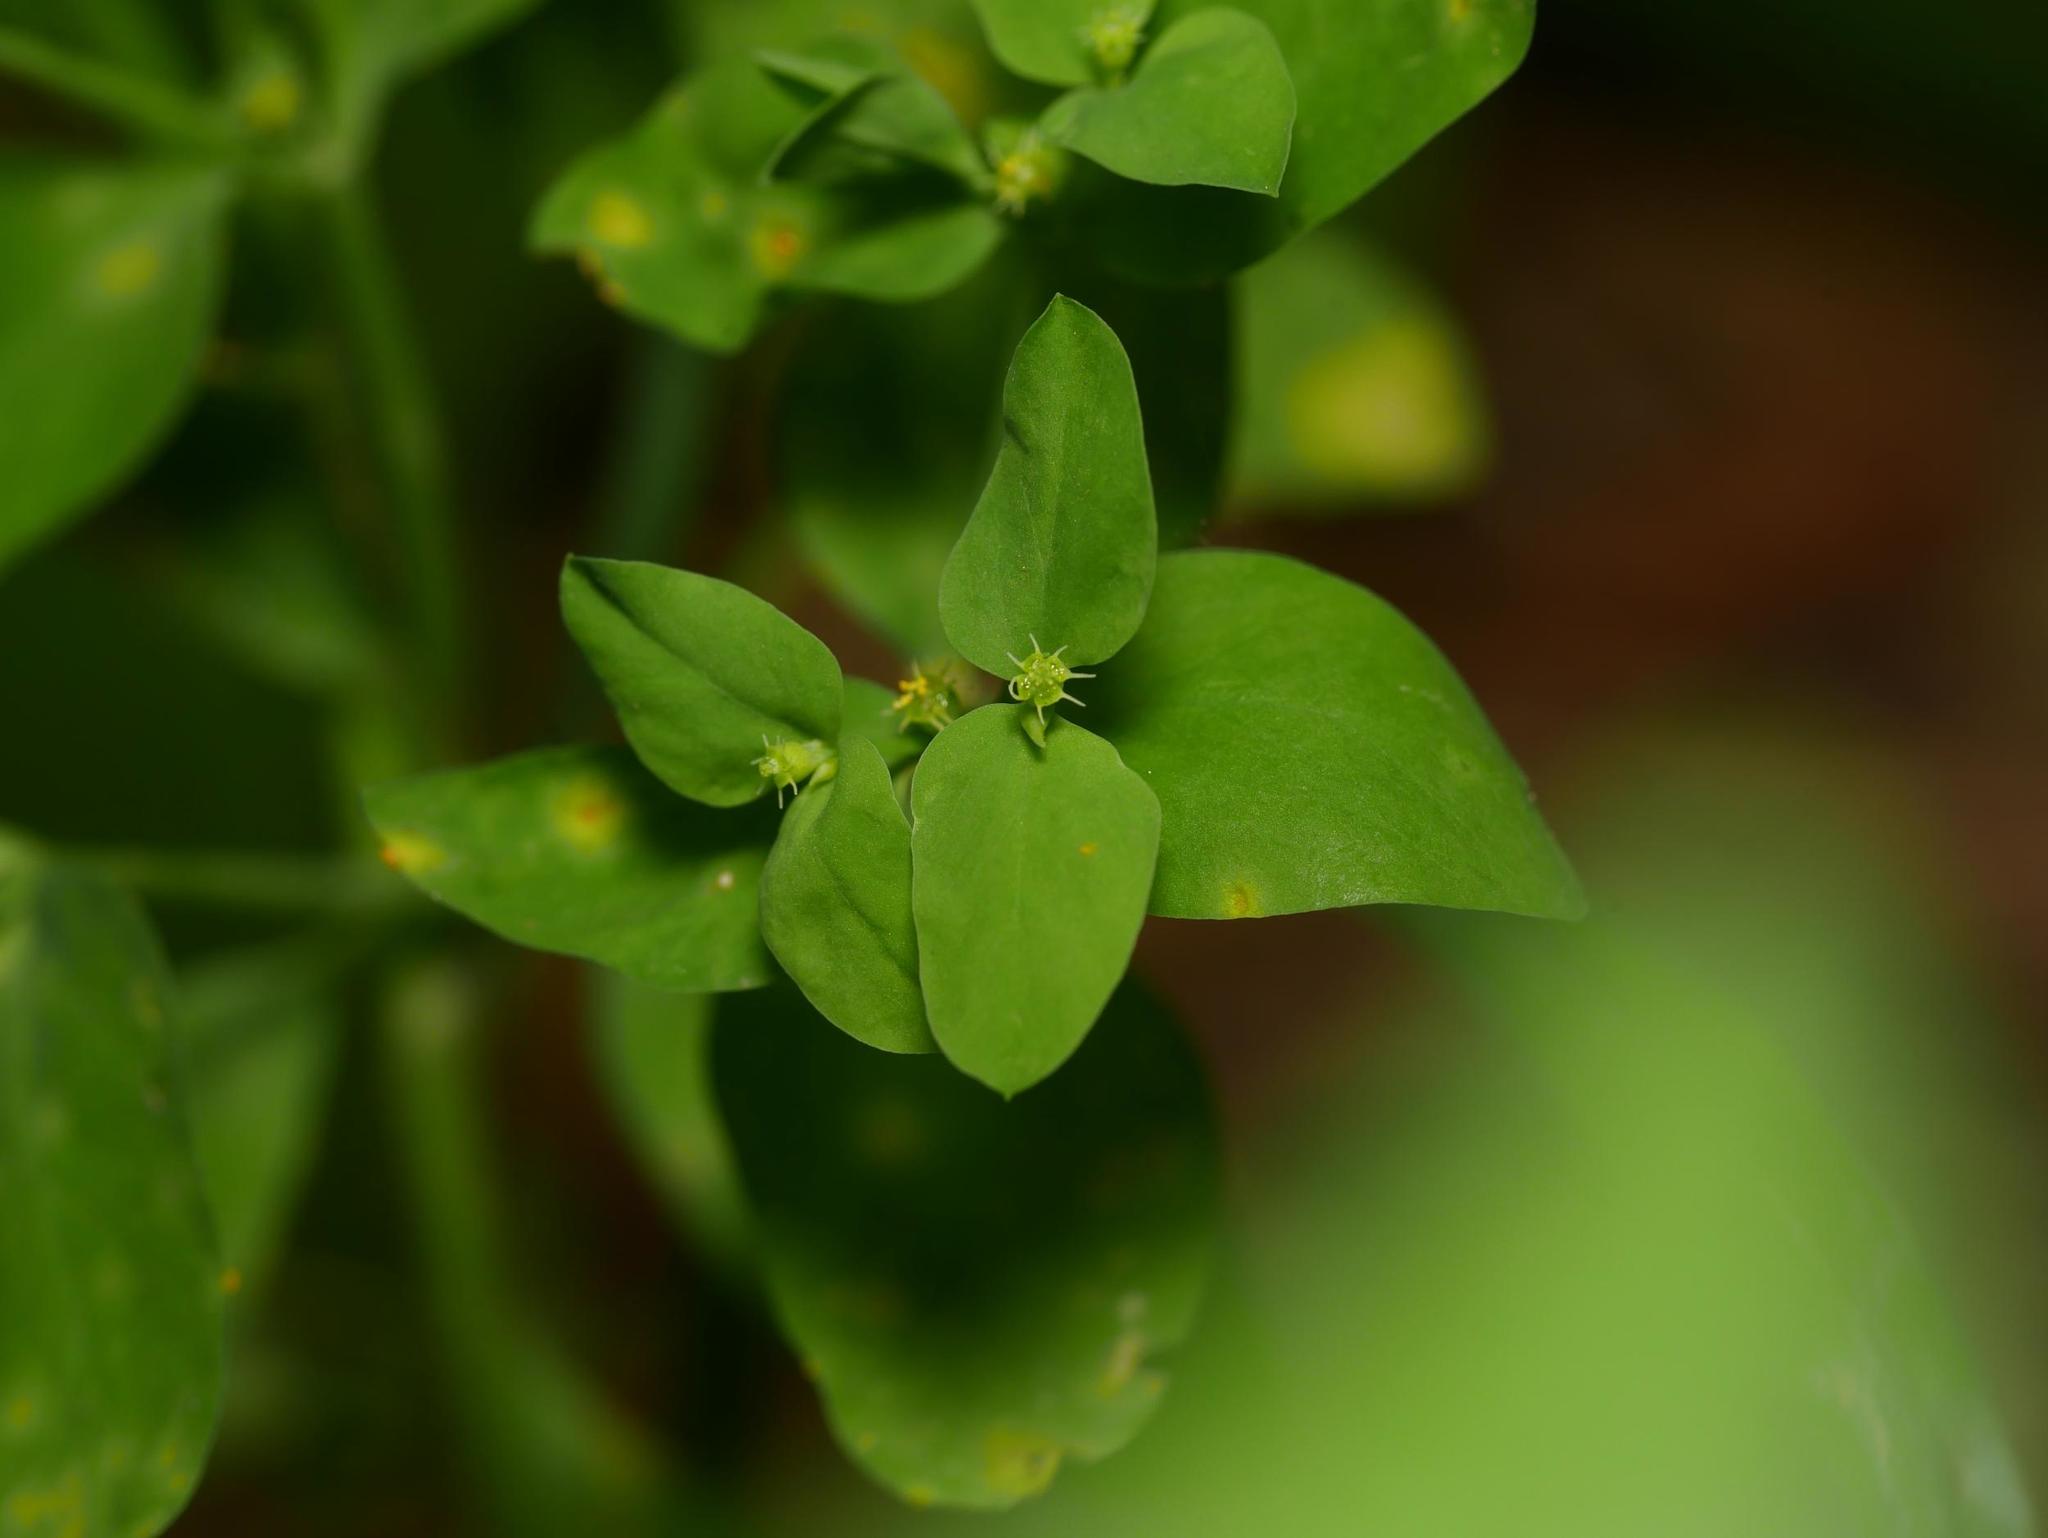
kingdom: Plantae
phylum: Tracheophyta
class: Magnoliopsida
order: Malpighiales
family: Euphorbiaceae
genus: Euphorbia
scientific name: Euphorbia peplus
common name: Petty spurge
